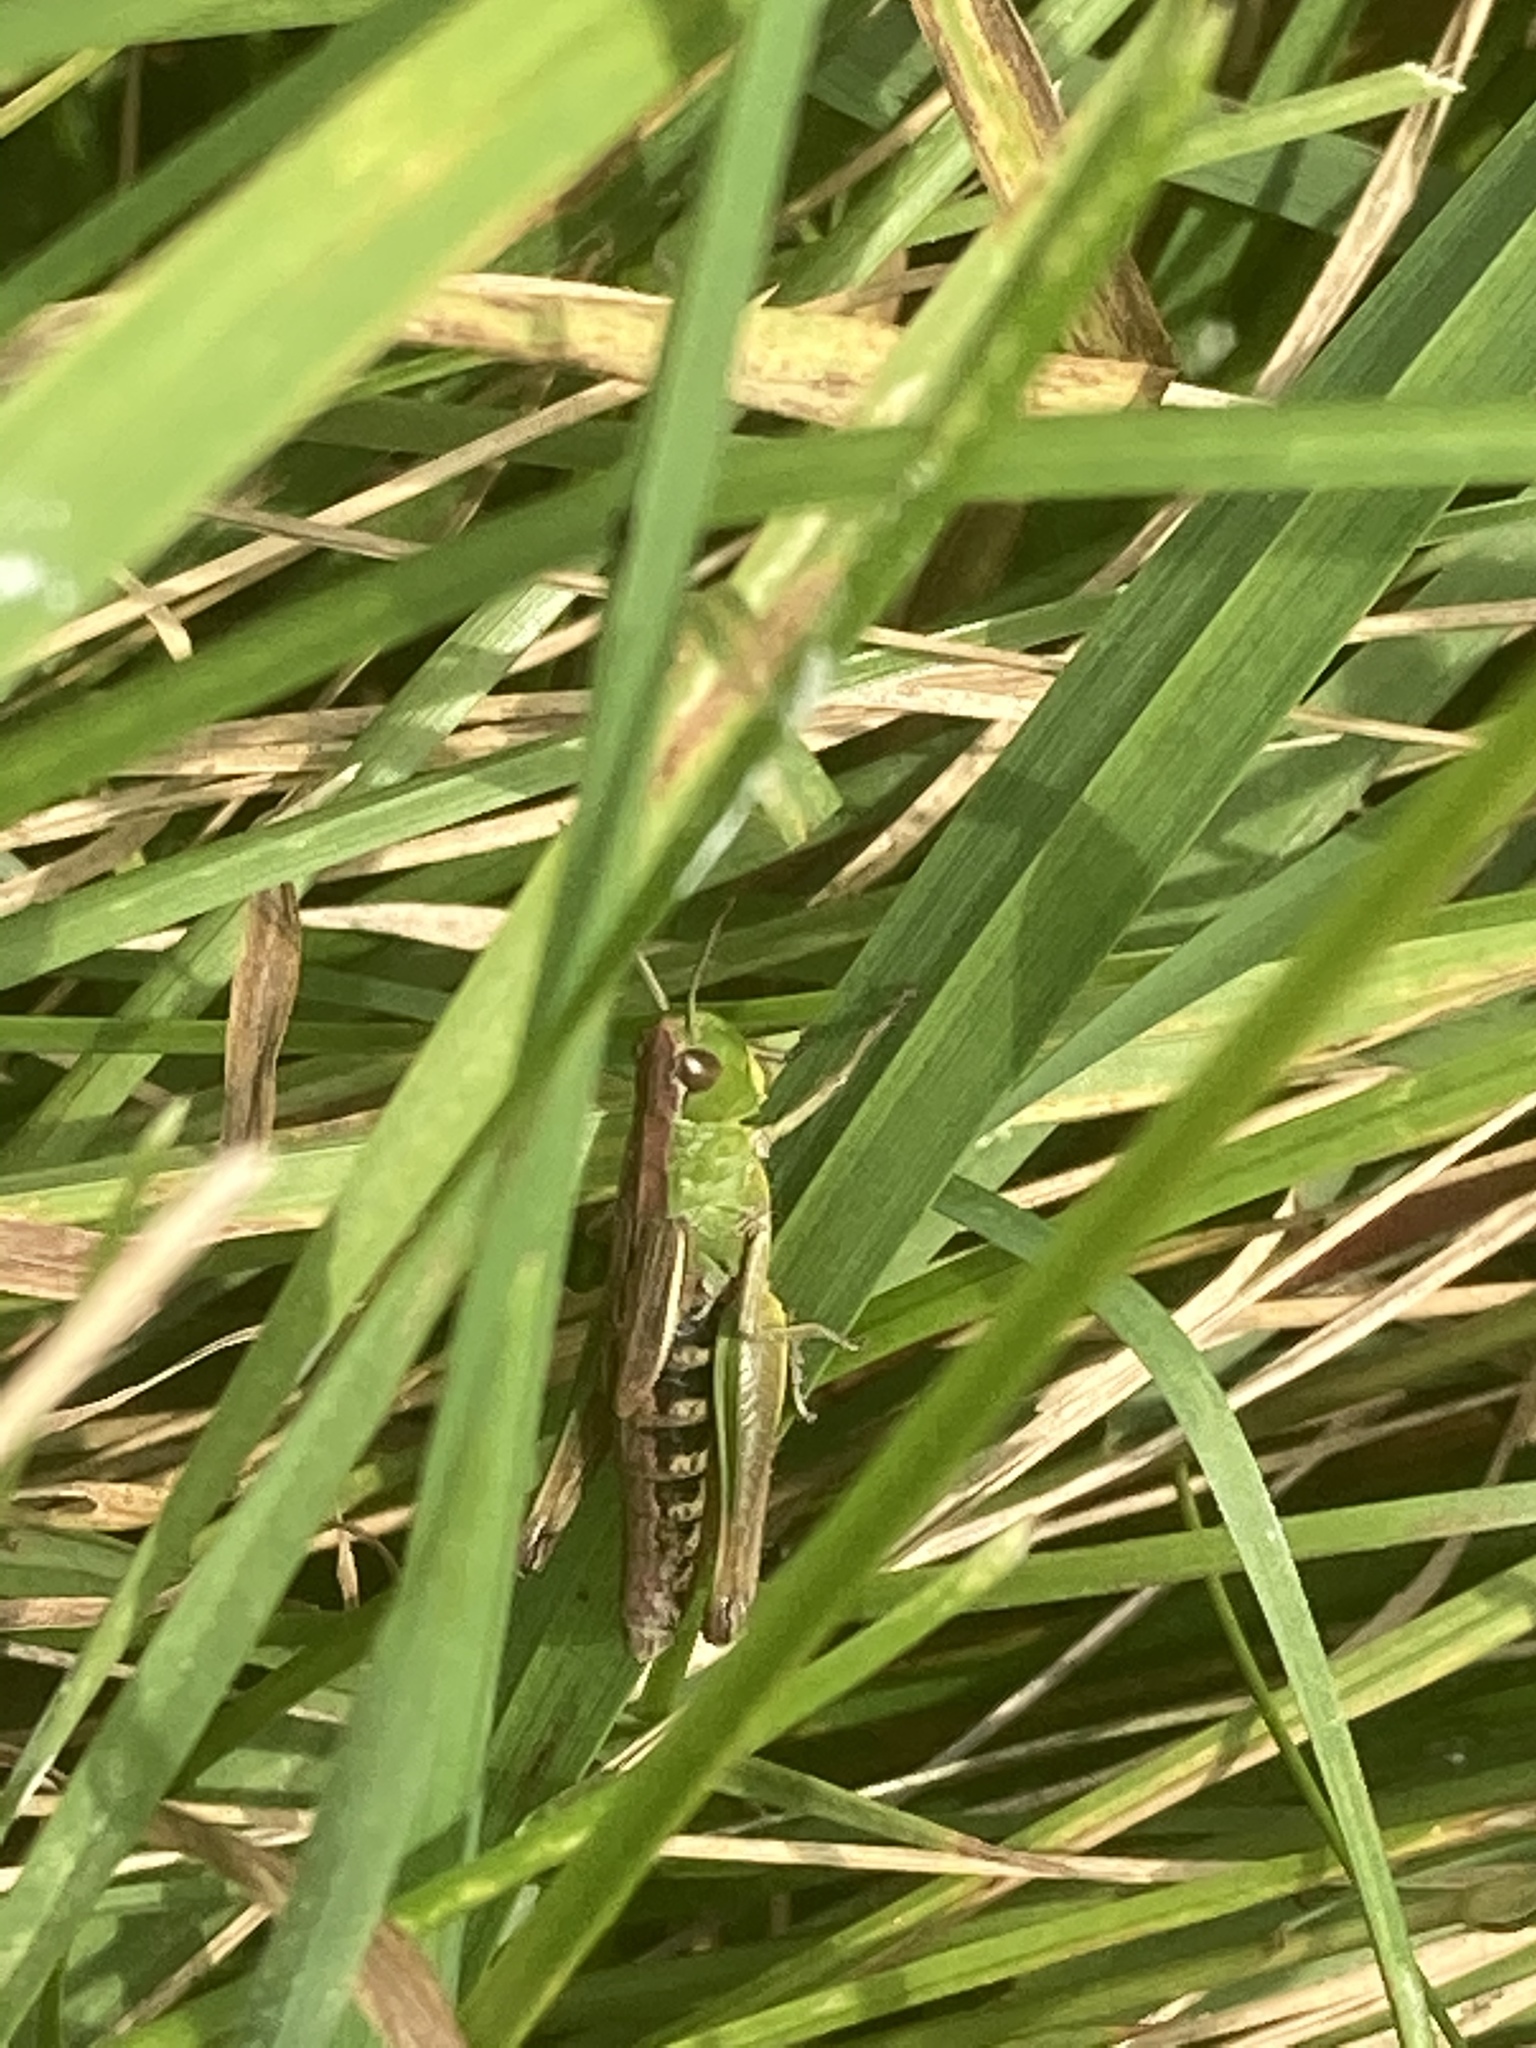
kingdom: Animalia
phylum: Arthropoda
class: Insecta
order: Orthoptera
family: Acrididae
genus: Pseudochorthippus
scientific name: Pseudochorthippus parallelus
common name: Meadow grasshopper
